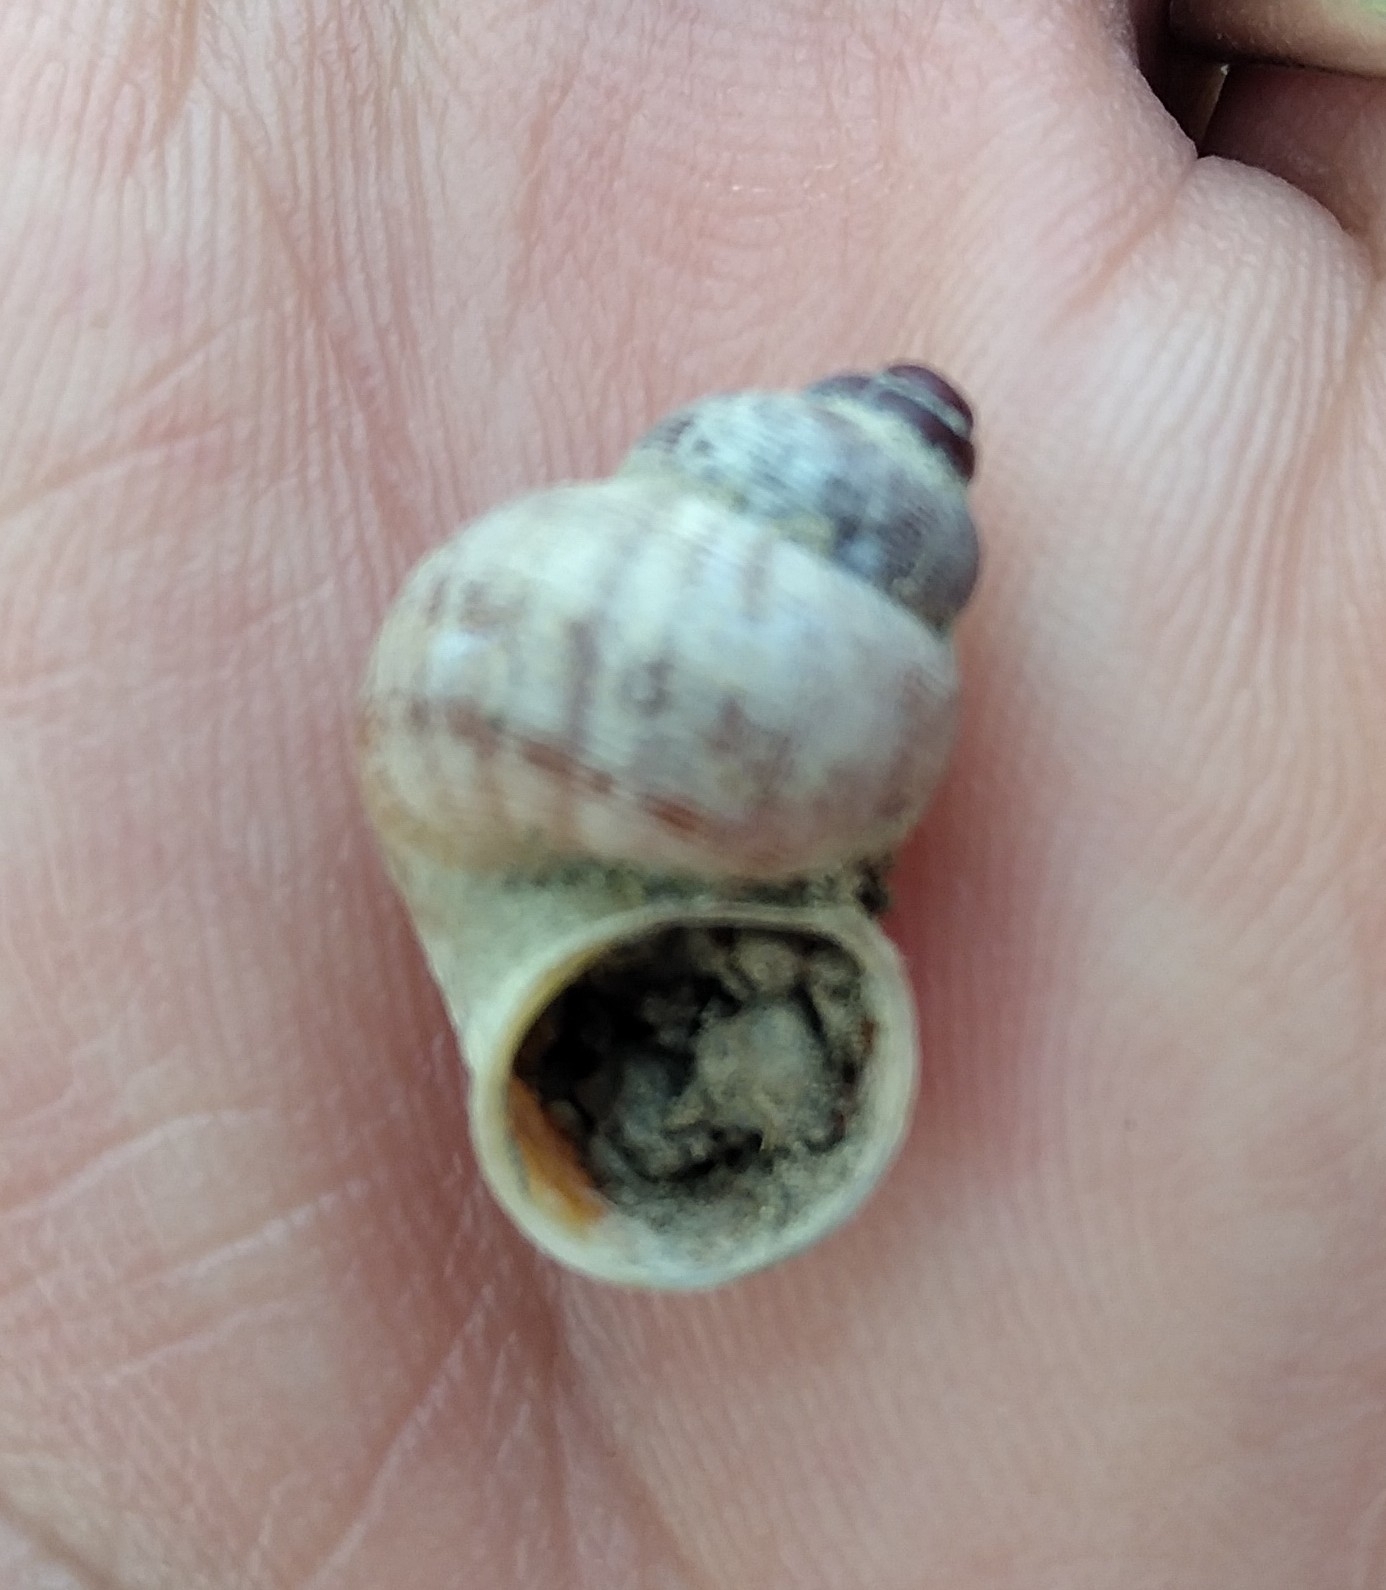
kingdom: Animalia
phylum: Mollusca
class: Gastropoda
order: Littorinimorpha
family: Pomatiidae
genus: Pomatias
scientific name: Pomatias elegans
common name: Red-mouthed snail
